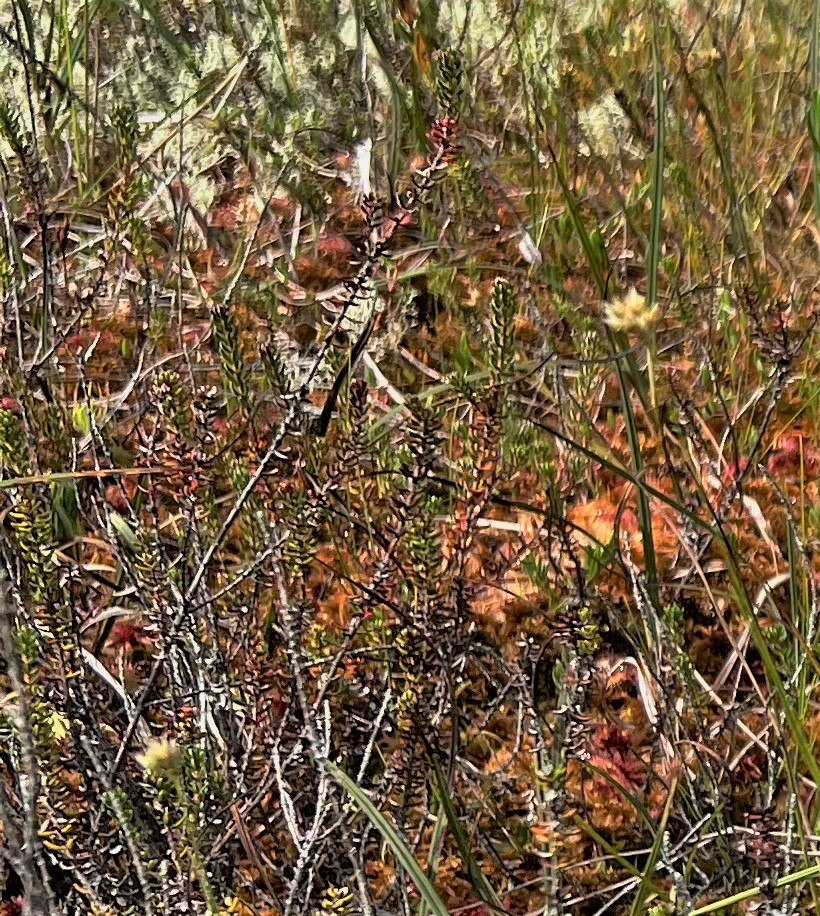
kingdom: Plantae
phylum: Tracheophyta
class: Magnoliopsida
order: Ericales
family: Ericaceae
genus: Empetrum
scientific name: Empetrum nigrum
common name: Black crowberry
